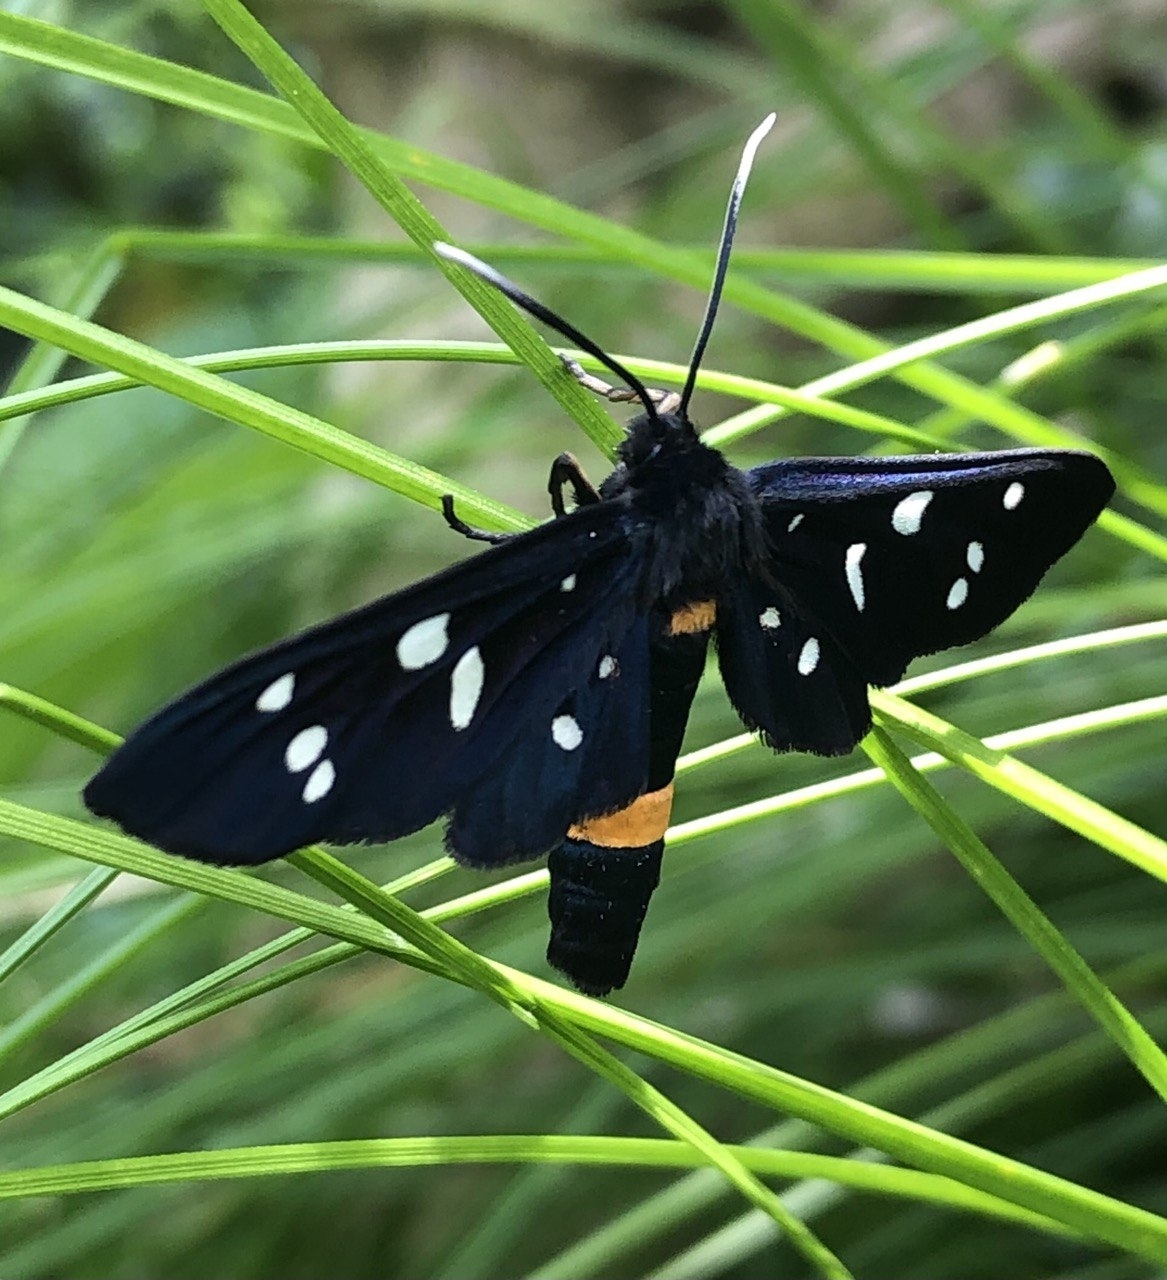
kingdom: Animalia
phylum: Arthropoda
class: Insecta
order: Lepidoptera
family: Erebidae
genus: Amata
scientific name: Amata phegea
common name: Nine-spotted
